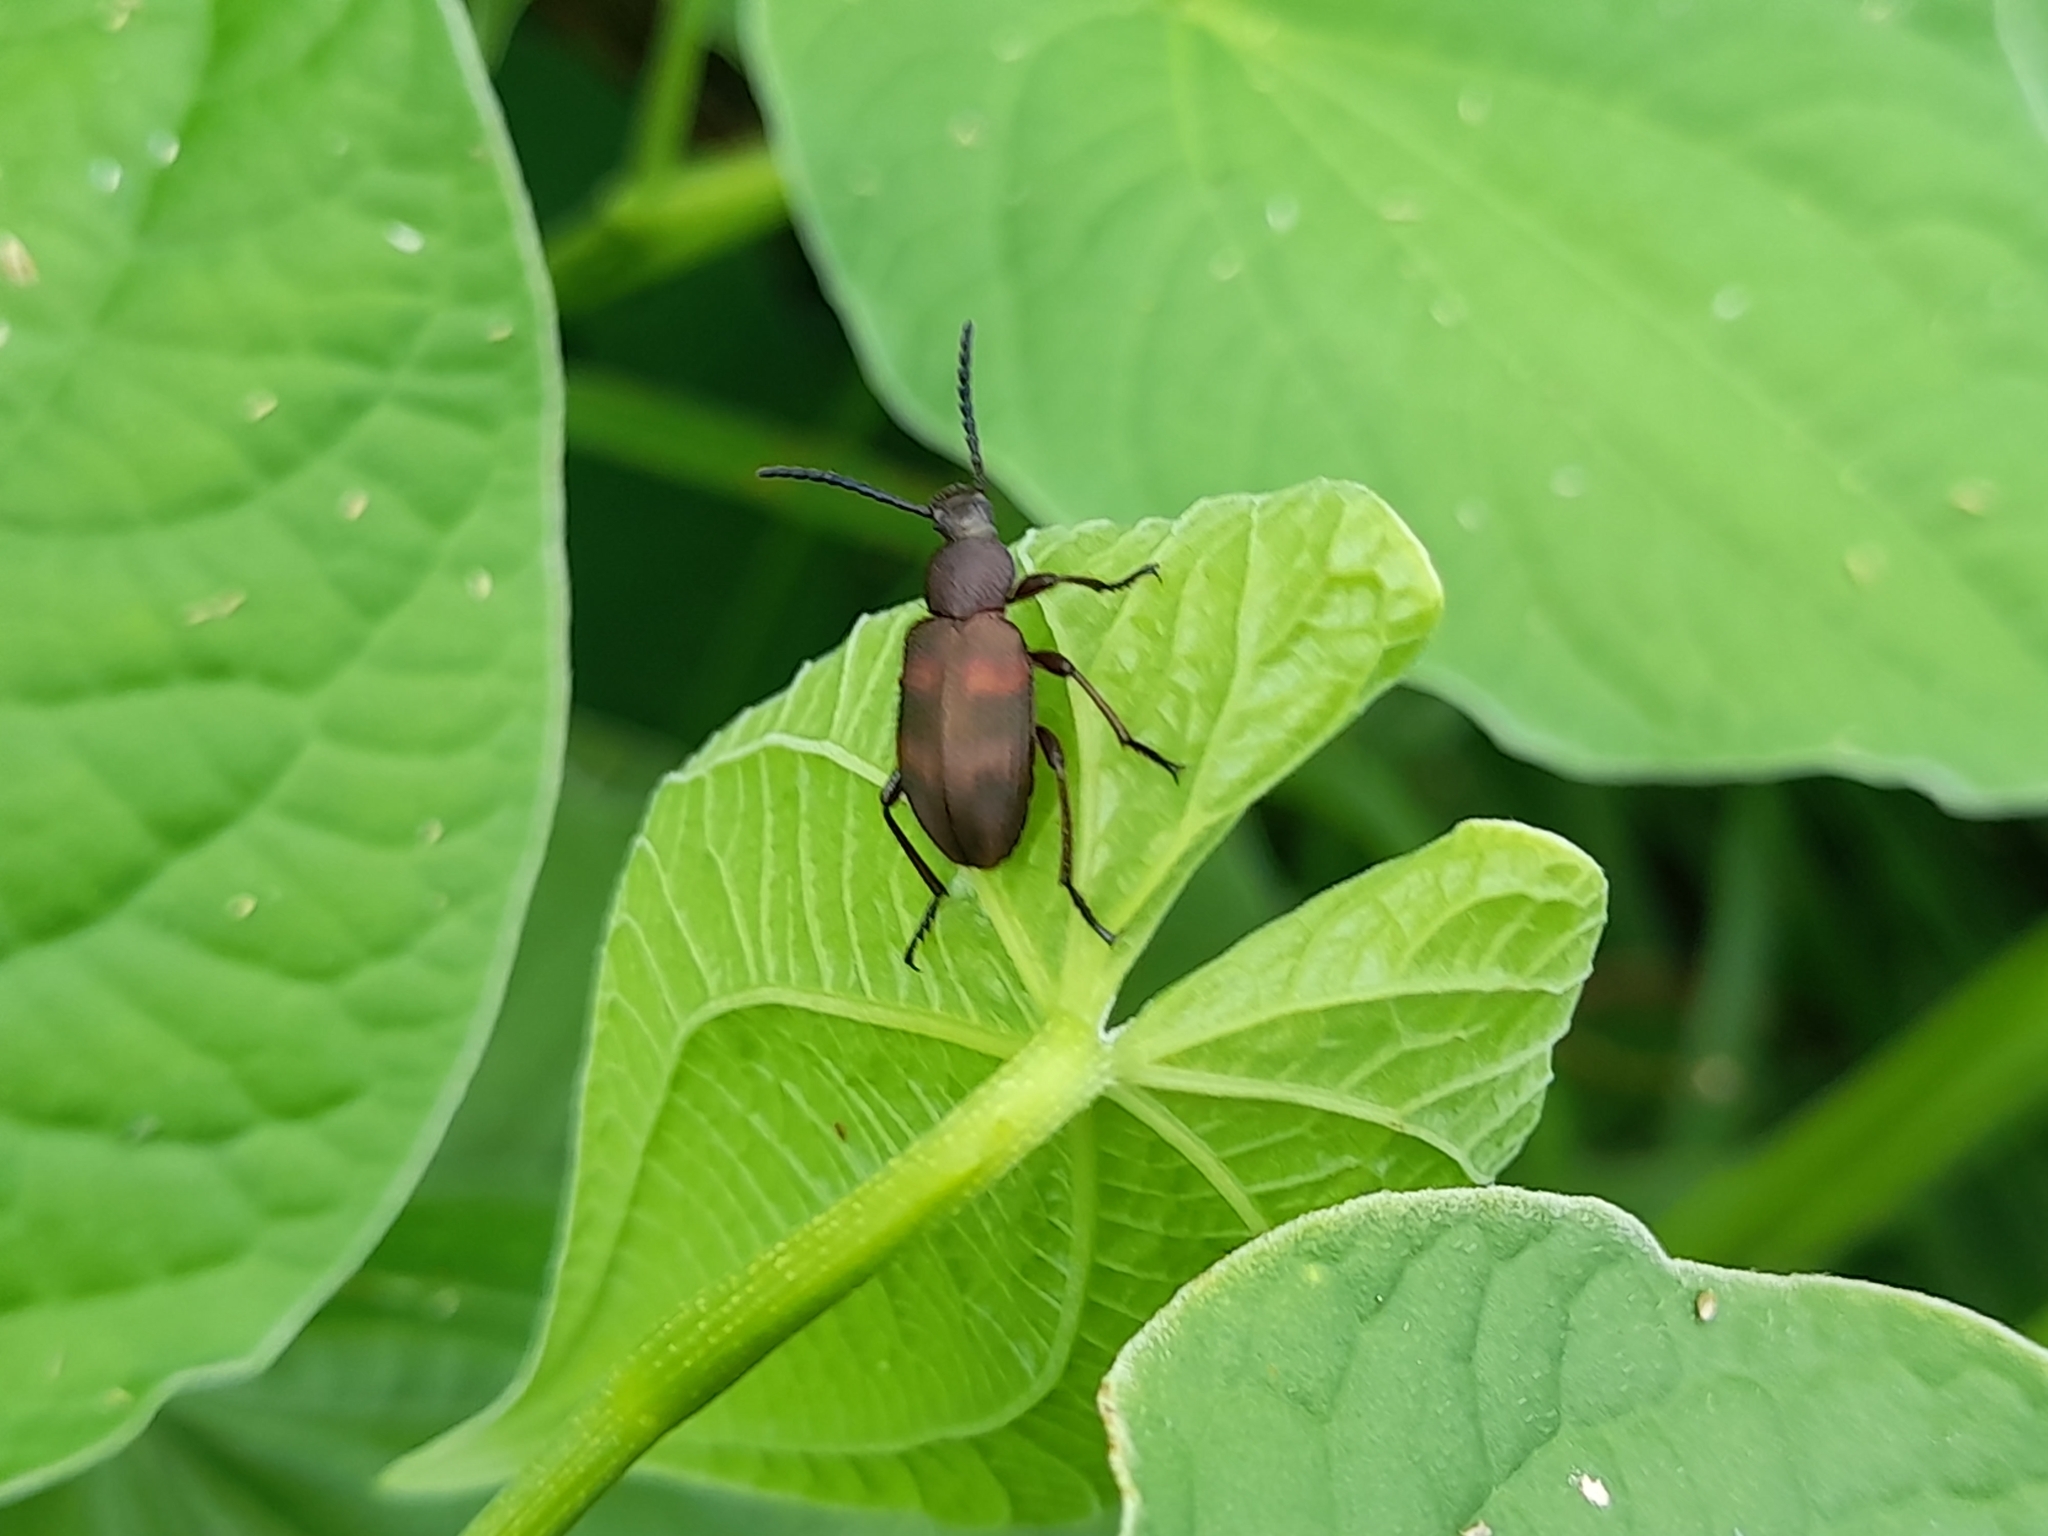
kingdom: Animalia
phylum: Arthropoda
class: Insecta
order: Coleoptera
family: Tenebrionidae
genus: Lystronychus
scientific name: Lystronychus
